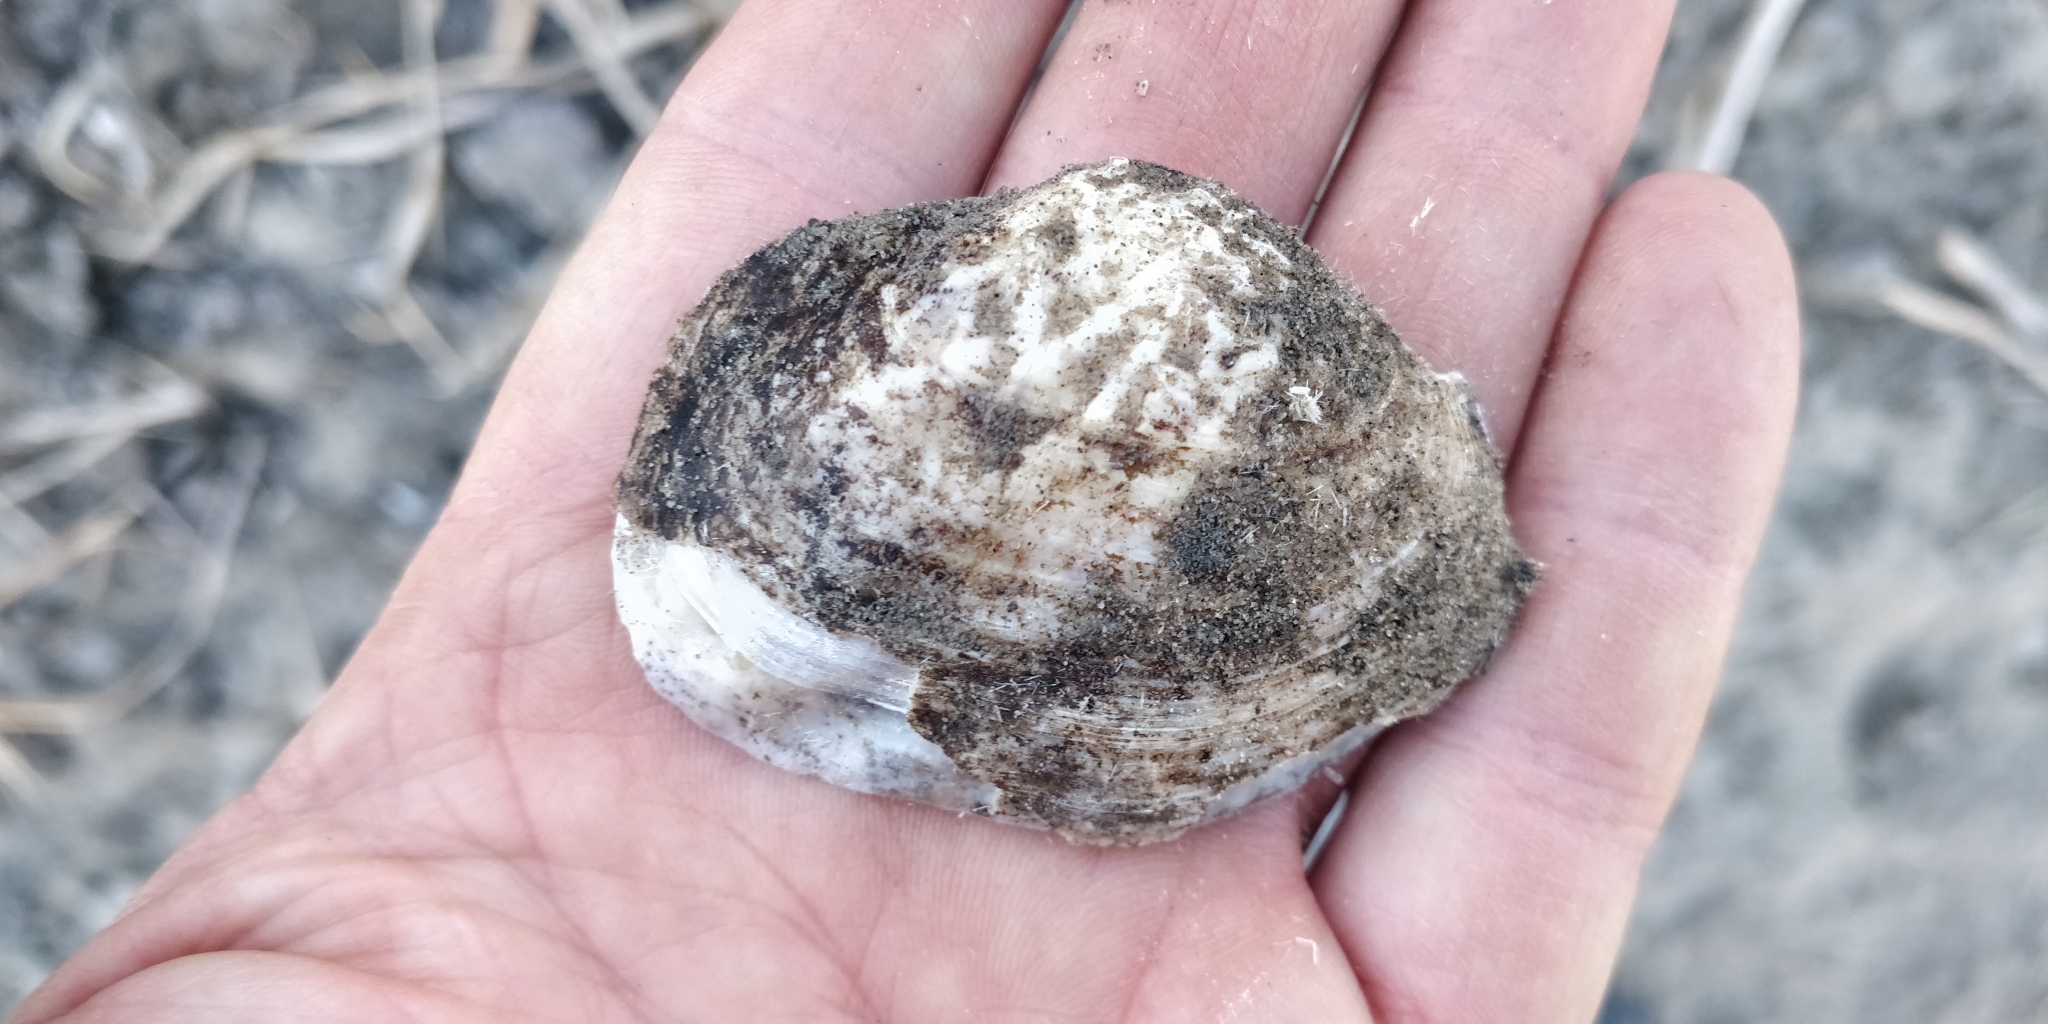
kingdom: Animalia
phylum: Mollusca
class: Bivalvia
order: Unionida
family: Unionidae
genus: Arcidens
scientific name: Arcidens confragosus
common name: Rock pocketbook
